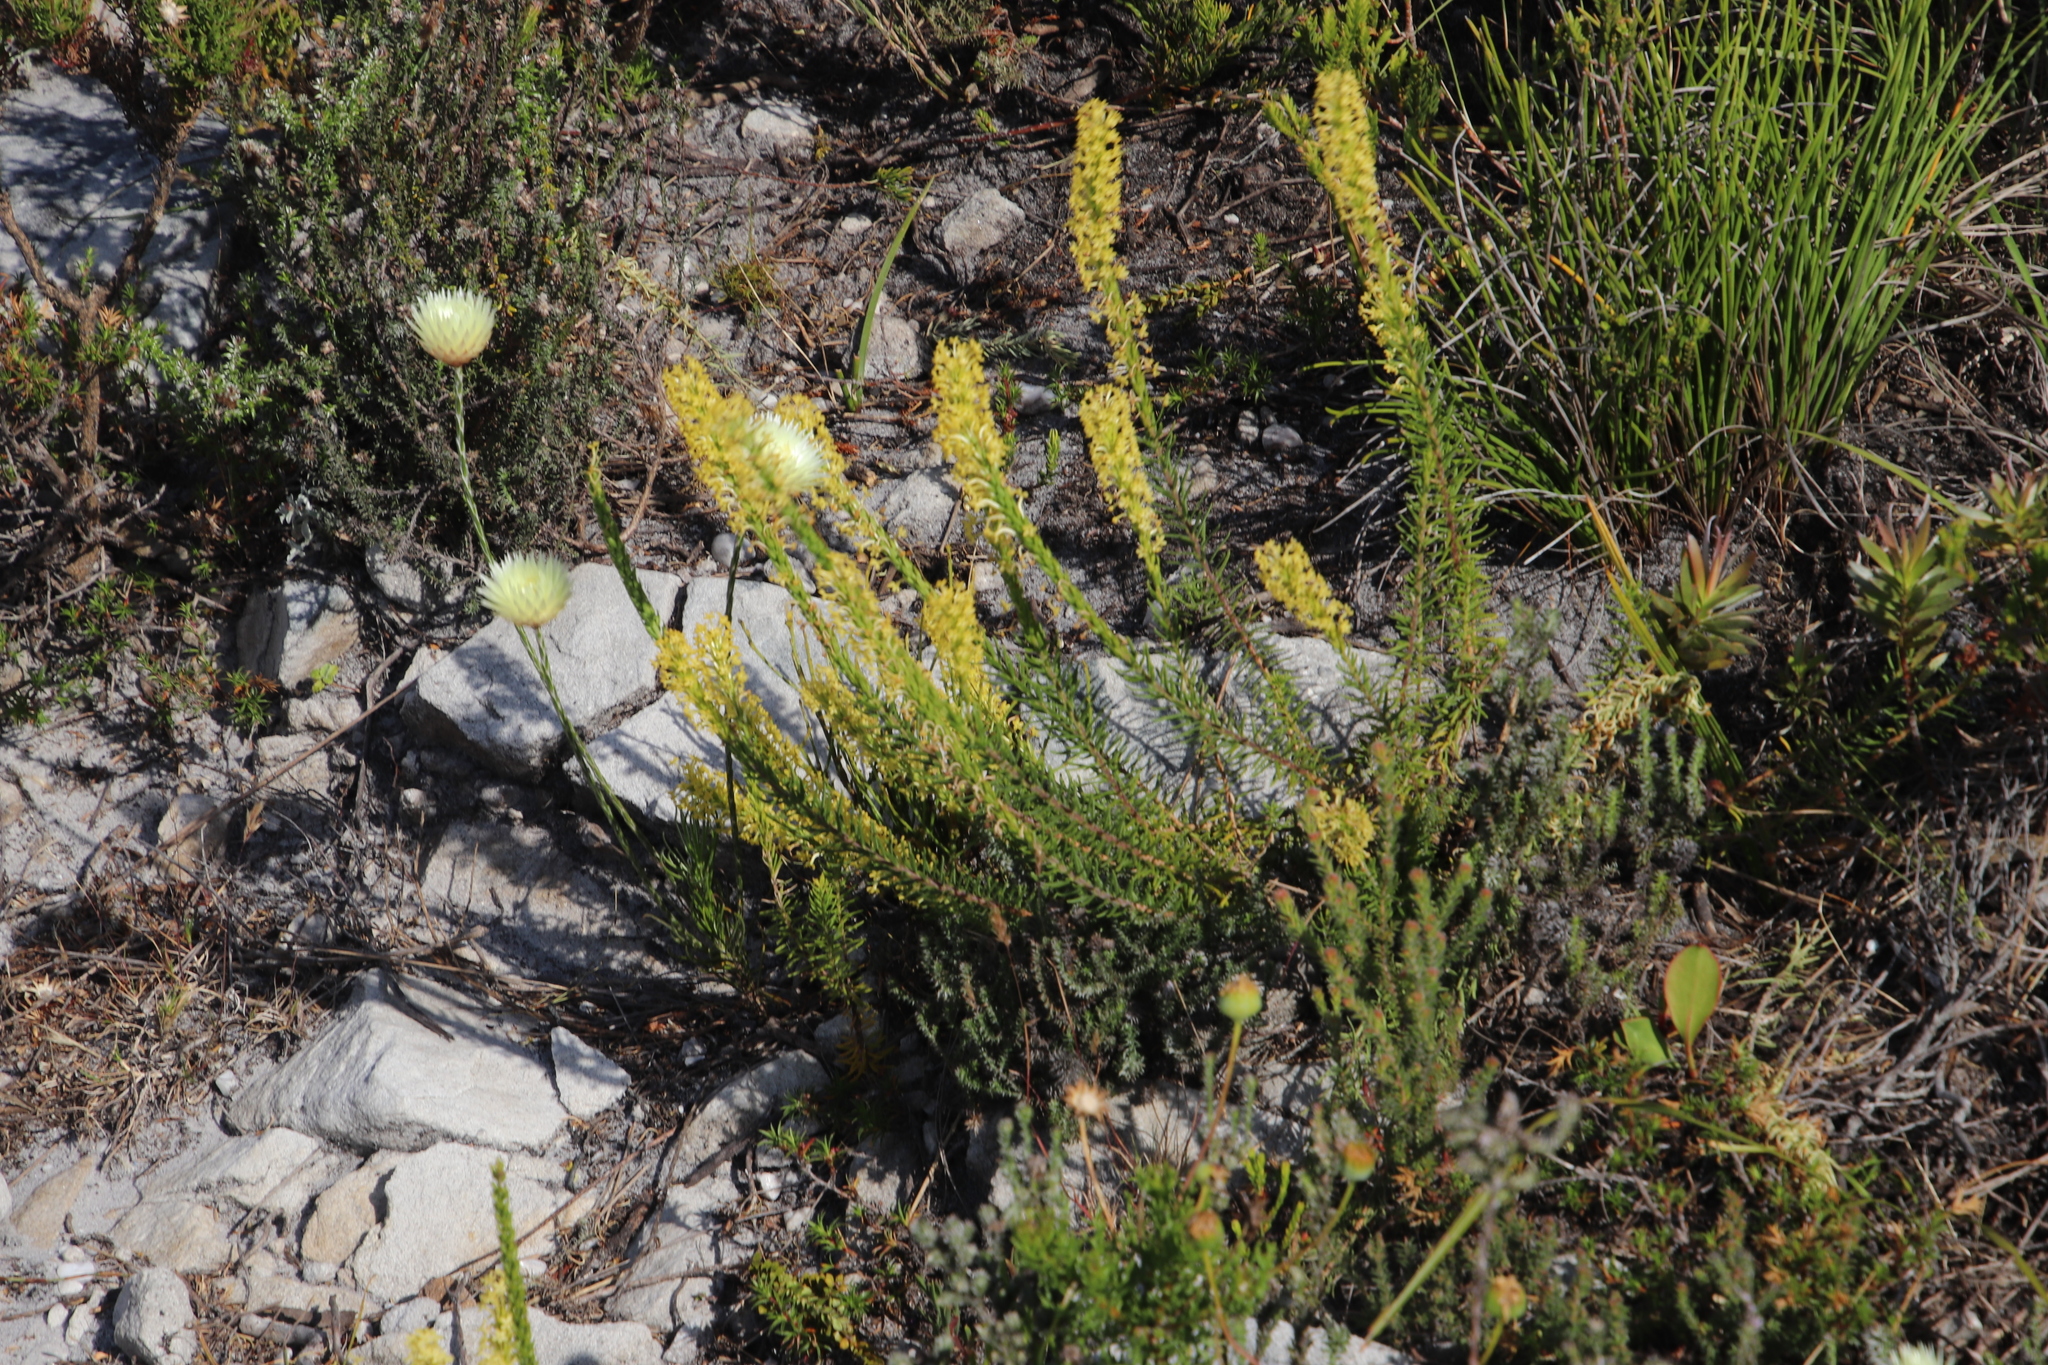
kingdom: Plantae
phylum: Tracheophyta
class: Magnoliopsida
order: Lamiales
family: Scrophulariaceae
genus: Microdon
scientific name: Microdon dubius
